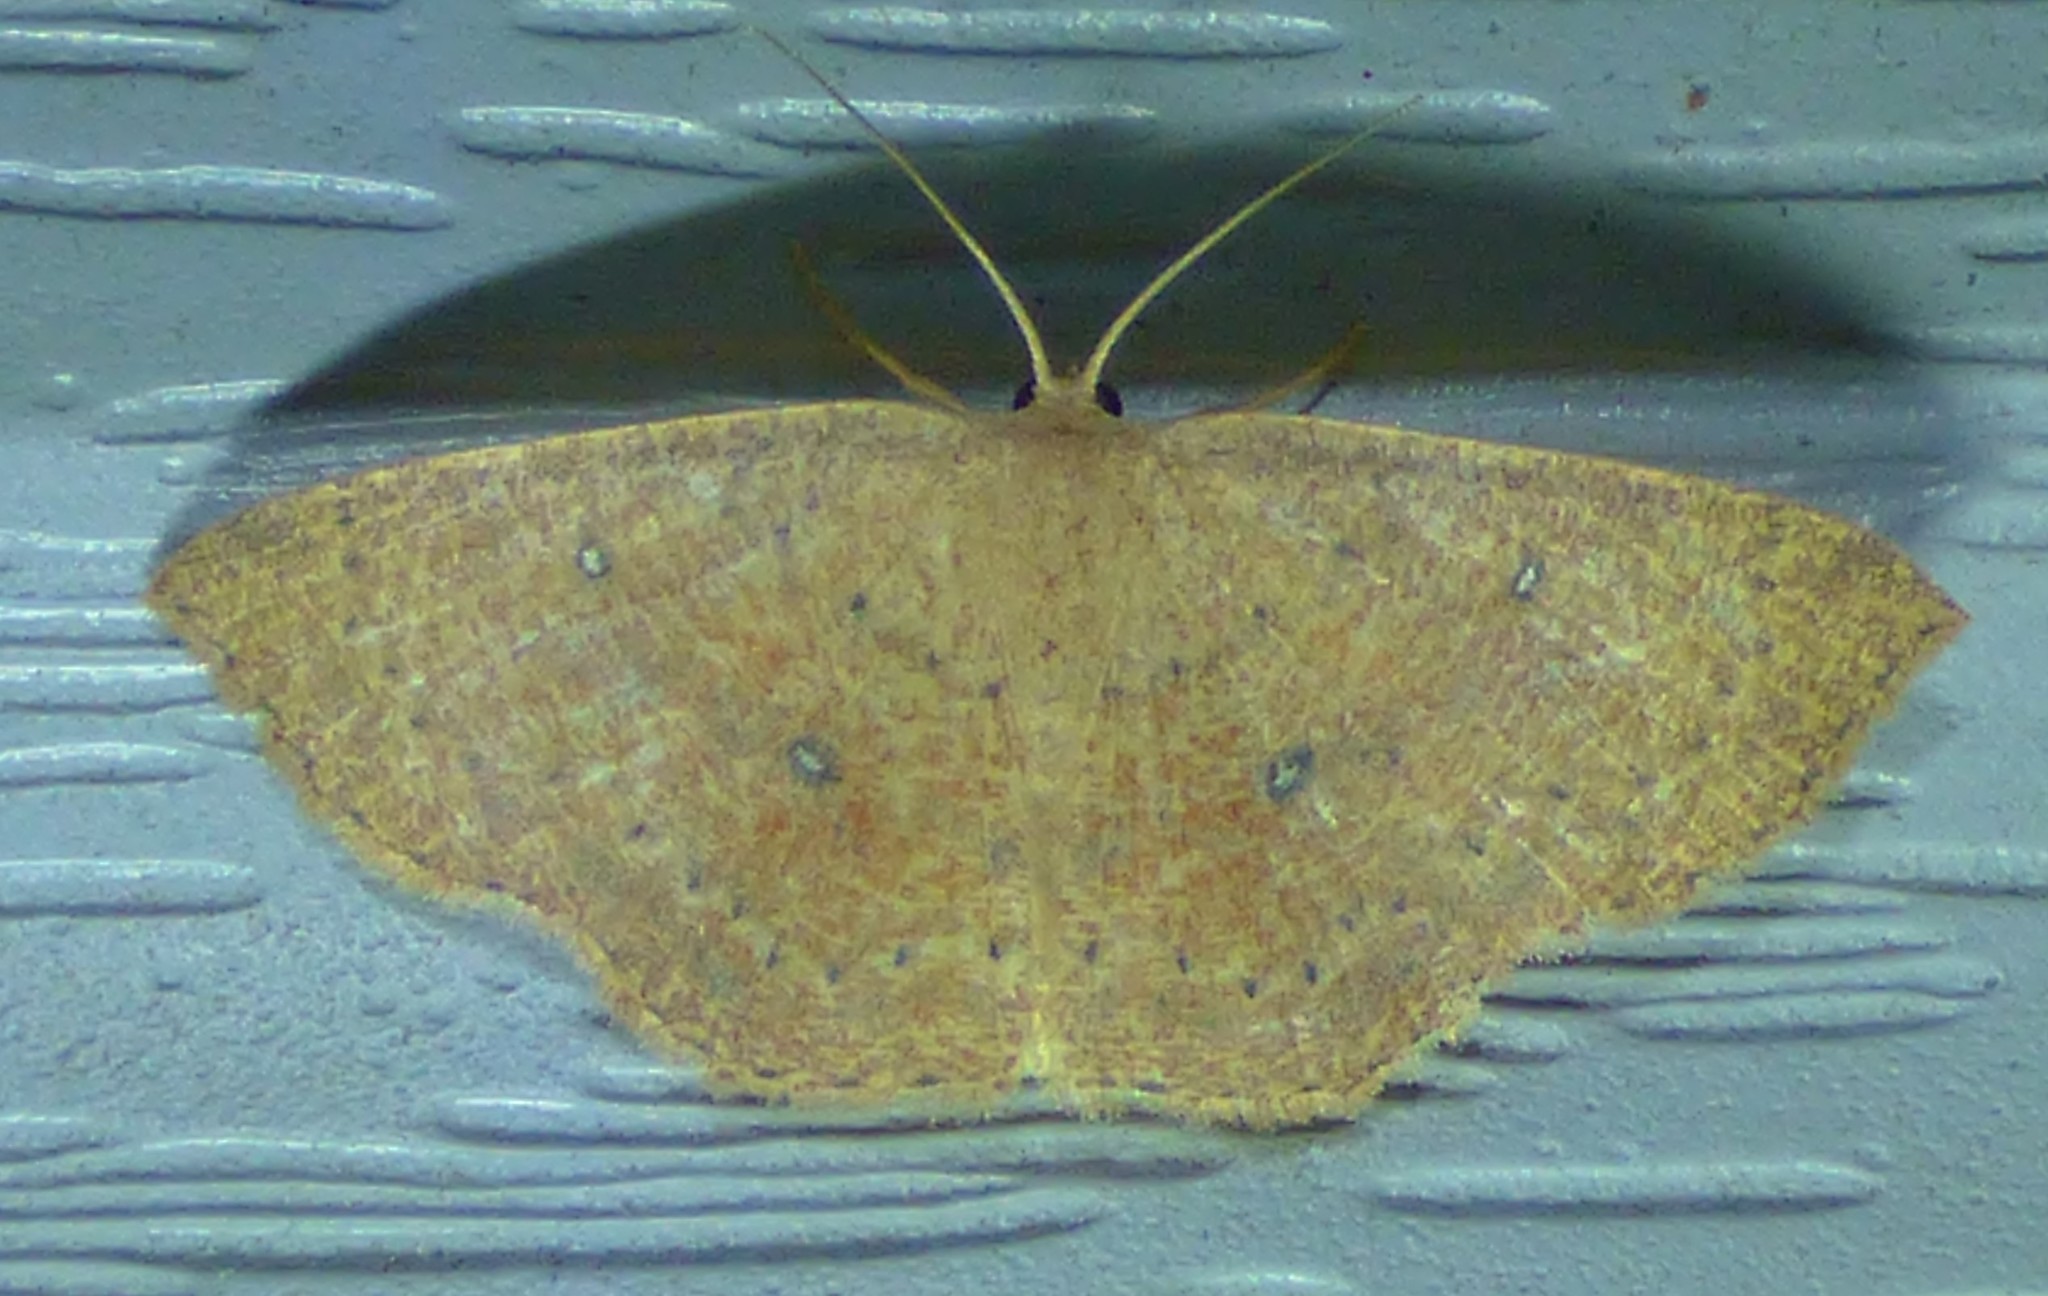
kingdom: Animalia
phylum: Arthropoda
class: Insecta
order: Lepidoptera
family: Geometridae
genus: Cyclophora
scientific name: Cyclophora packardi
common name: Packard's wave
